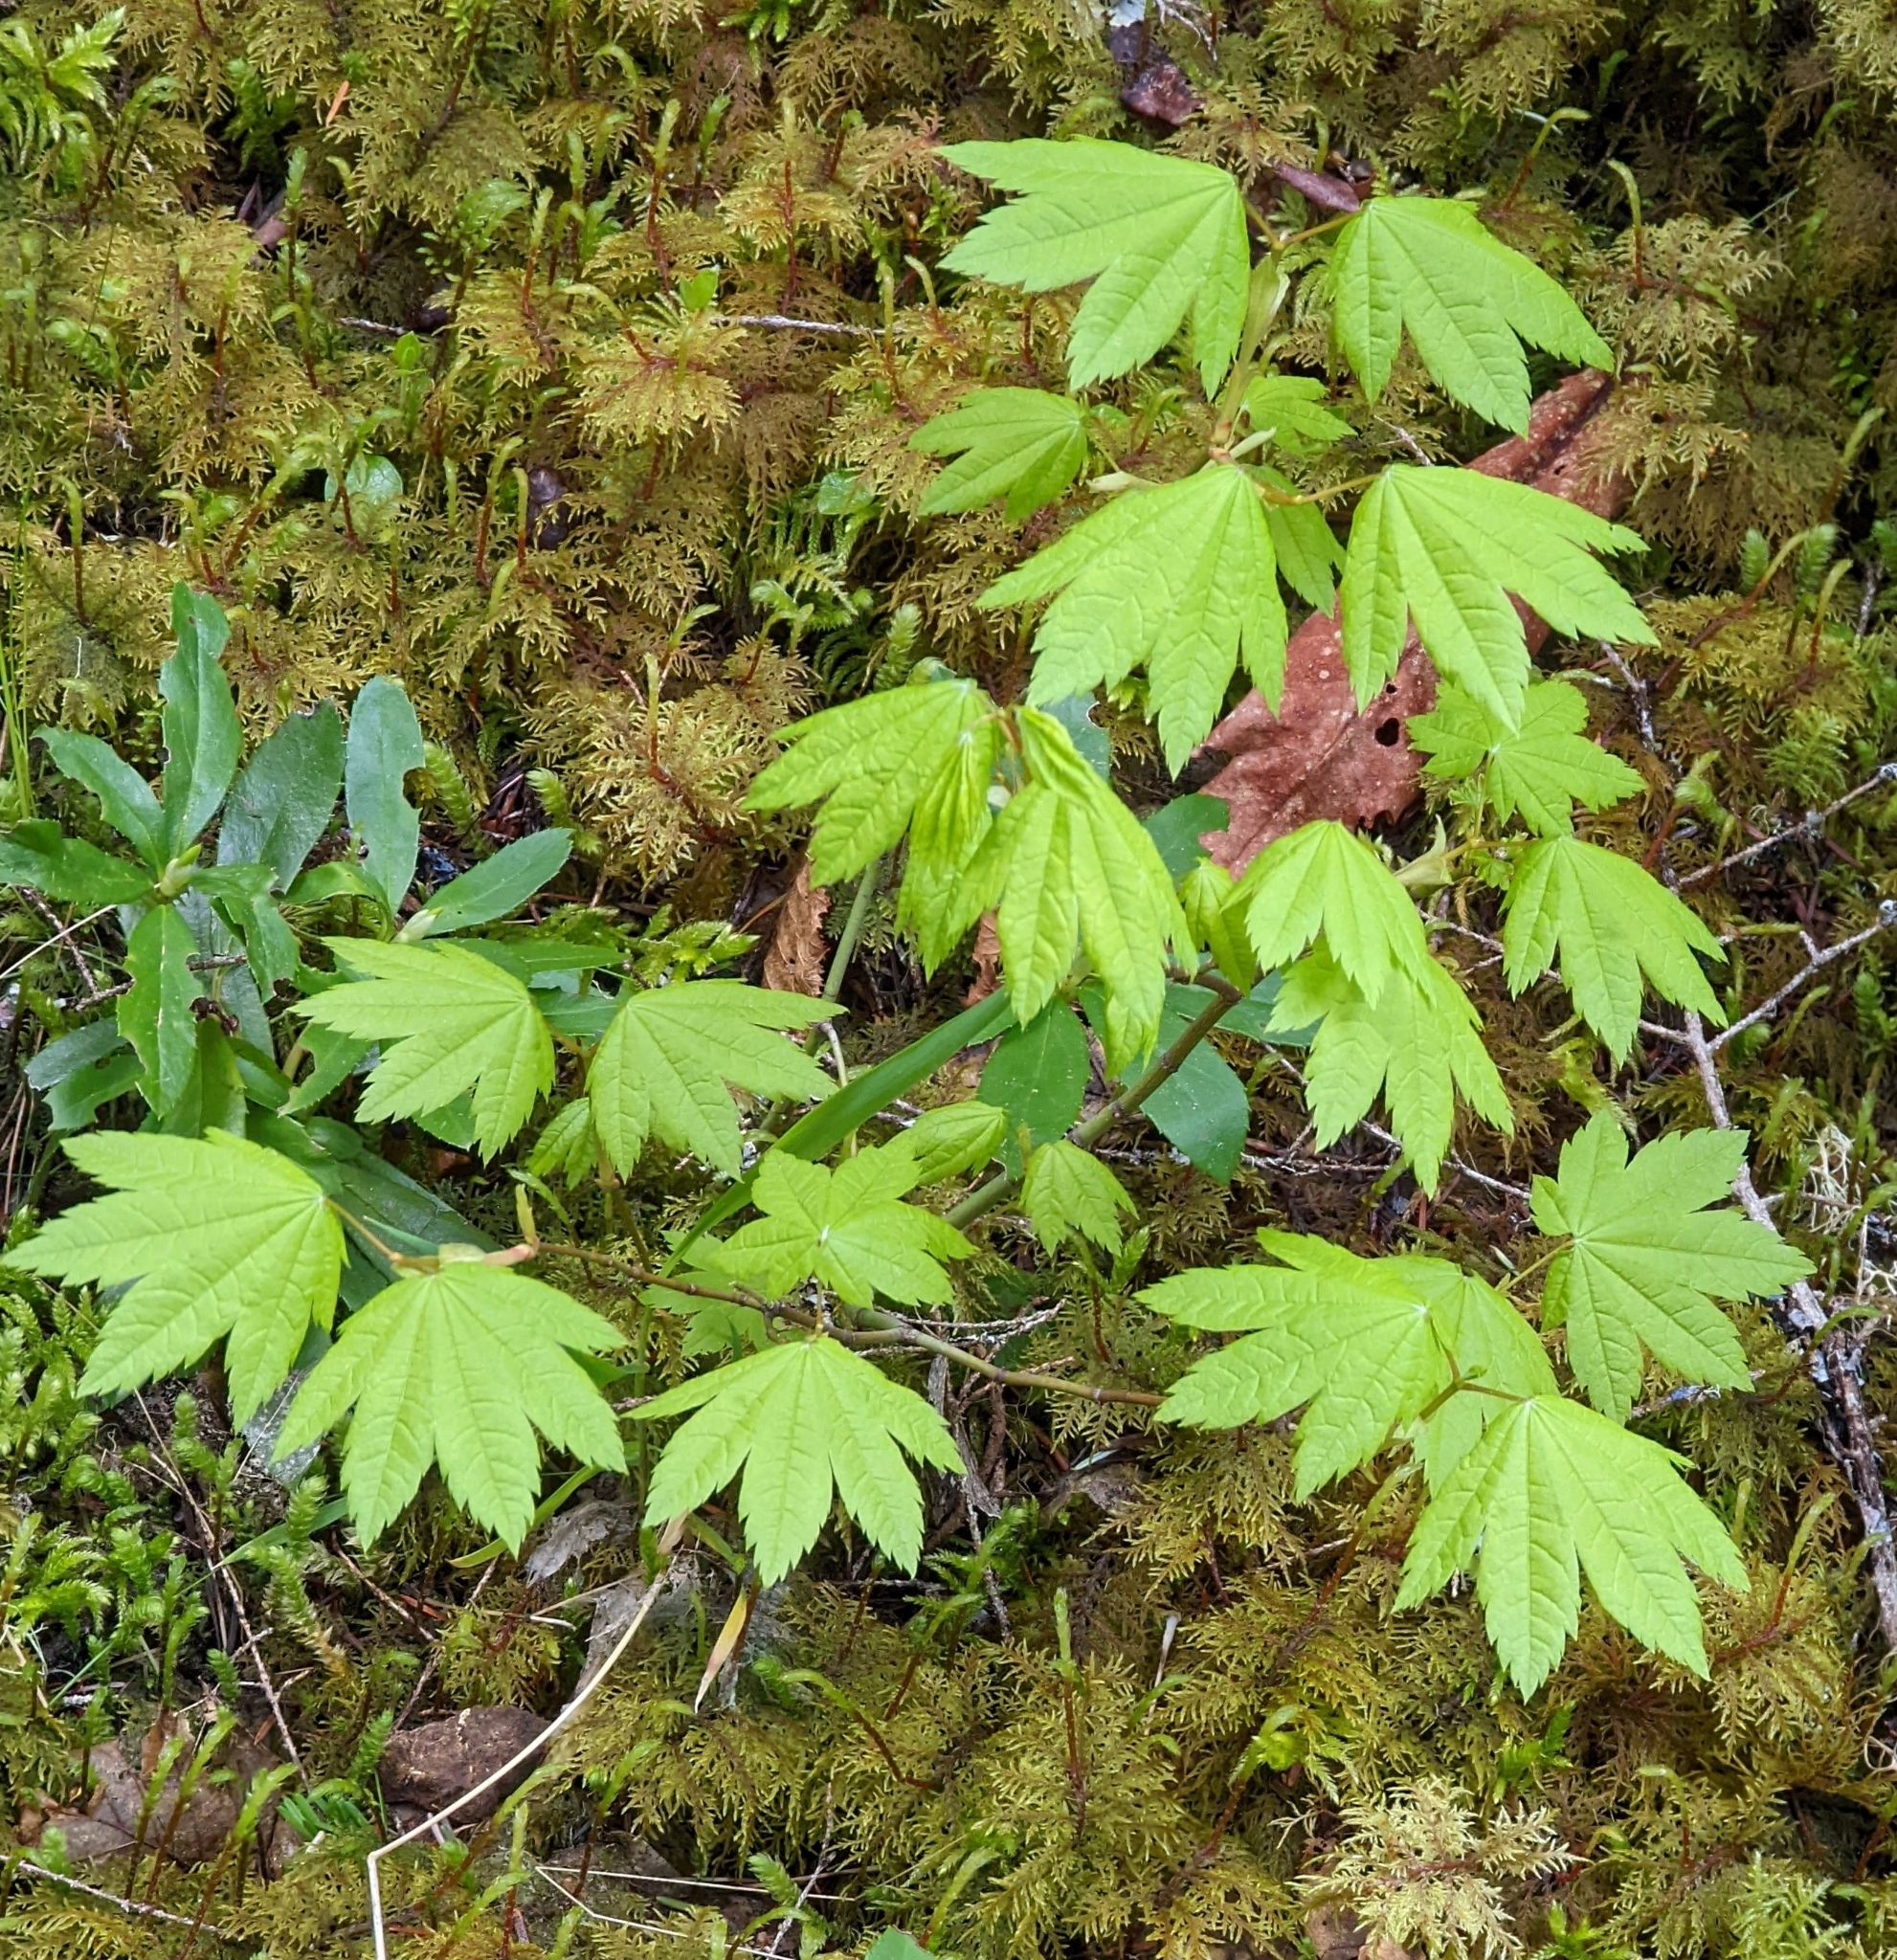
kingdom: Plantae
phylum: Tracheophyta
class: Magnoliopsida
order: Sapindales
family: Sapindaceae
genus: Acer
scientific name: Acer circinatum
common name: Vine maple
